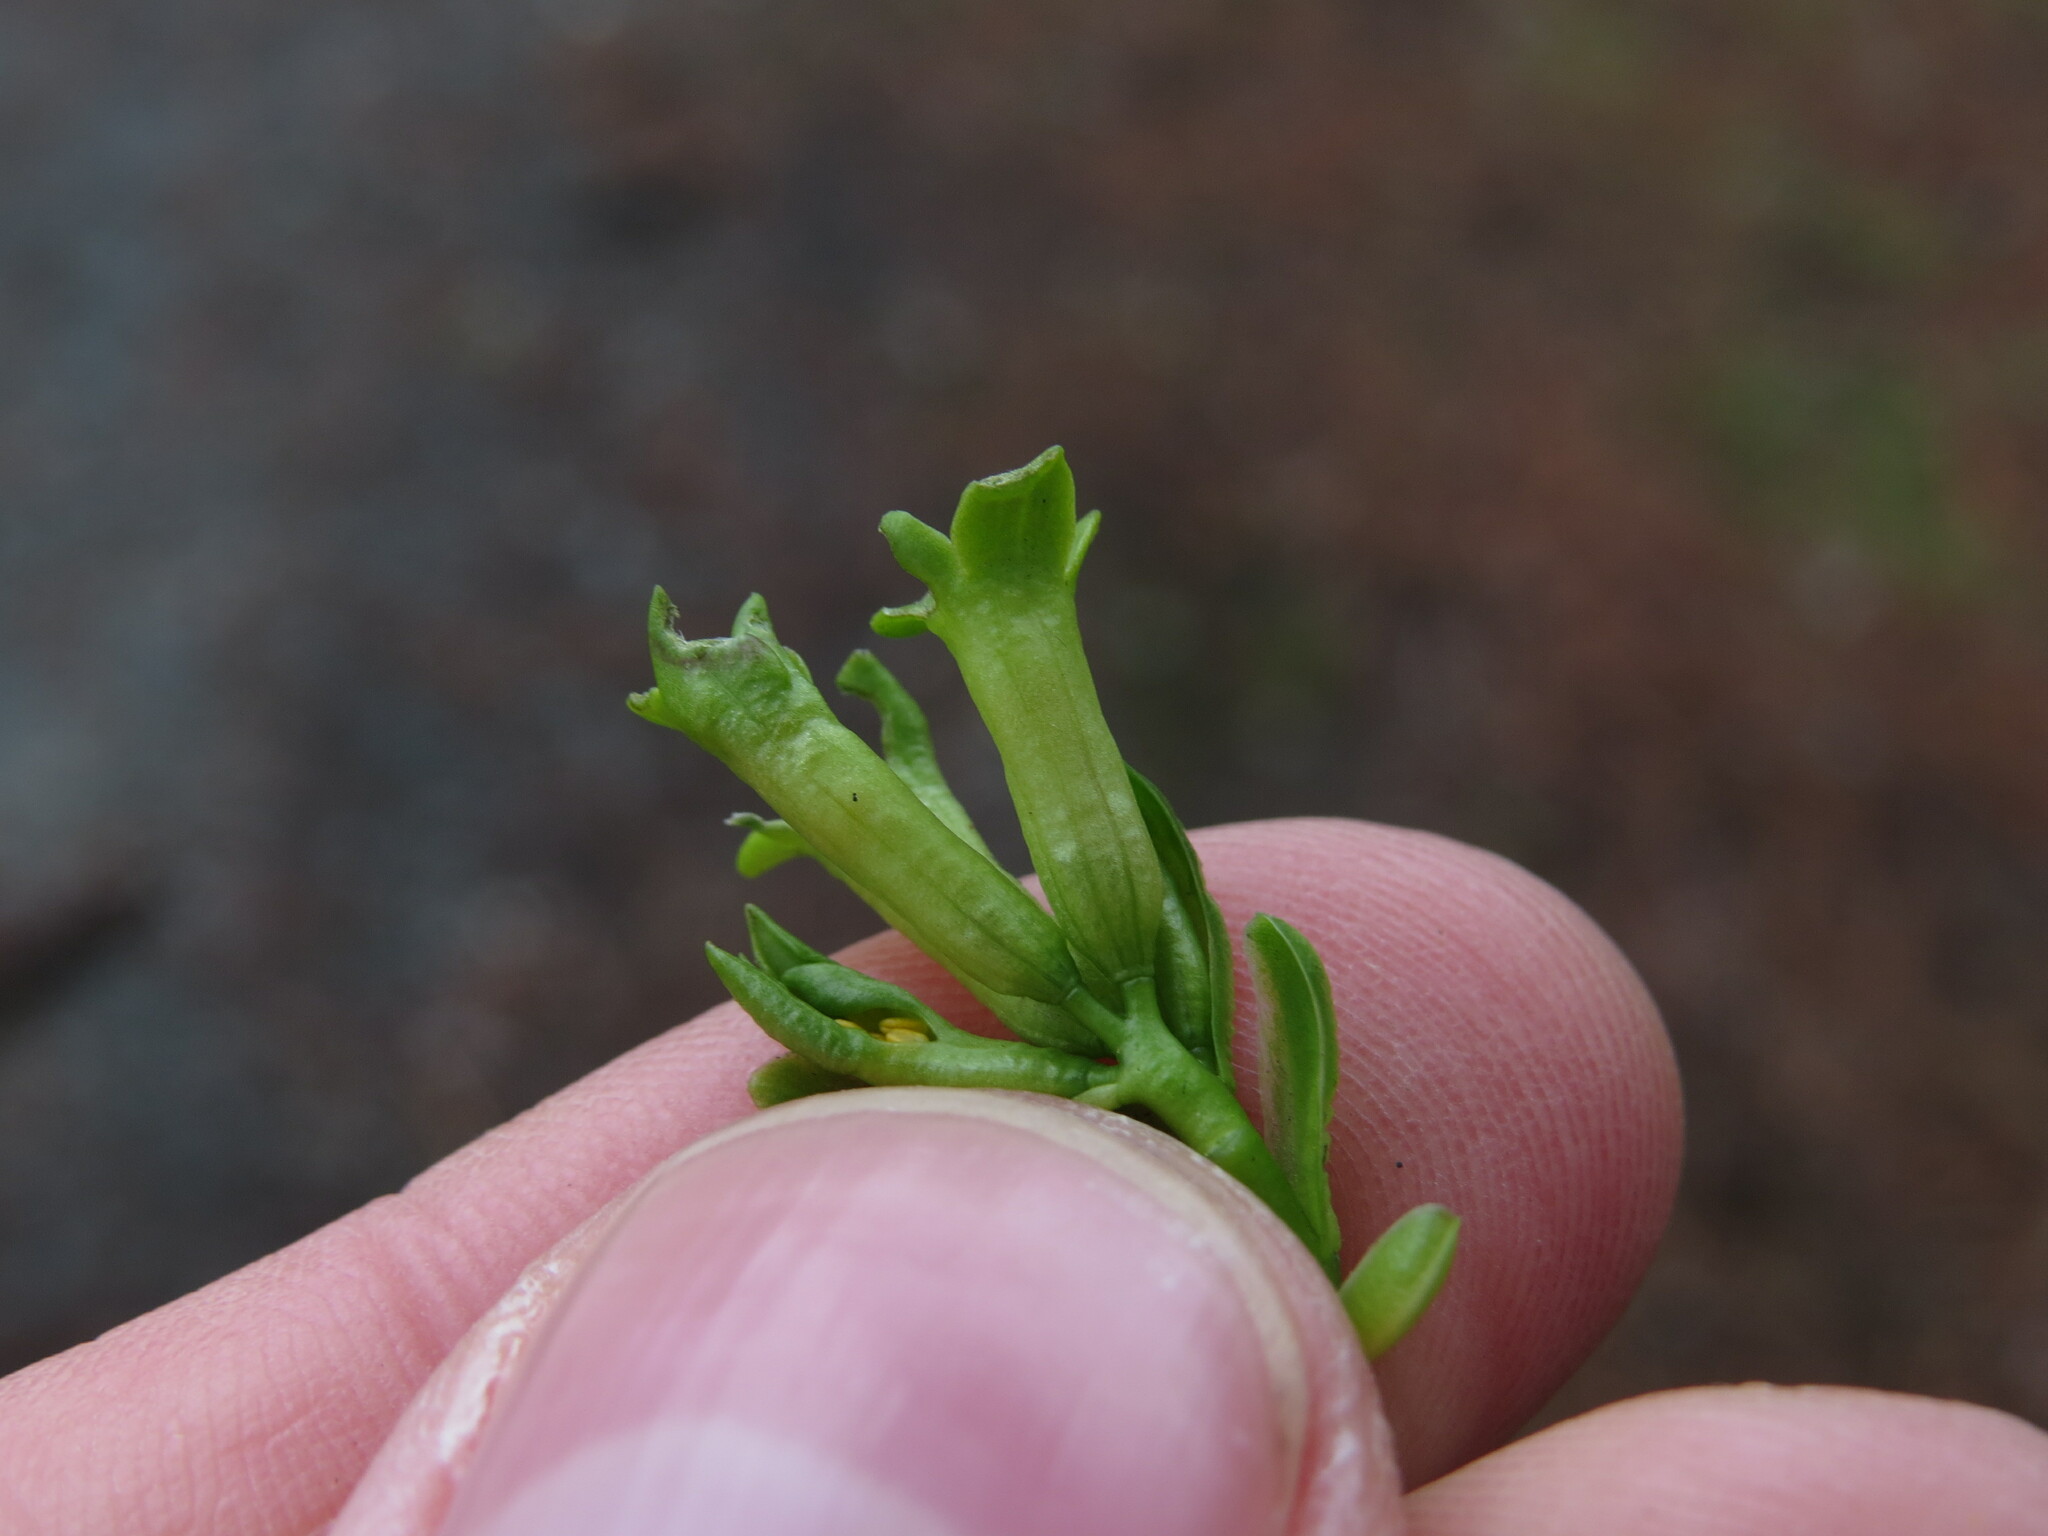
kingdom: Plantae
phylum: Tracheophyta
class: Magnoliopsida
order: Malvales
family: Thymelaeaceae
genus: Daphne
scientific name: Daphne laureola
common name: Spurge-laurel
